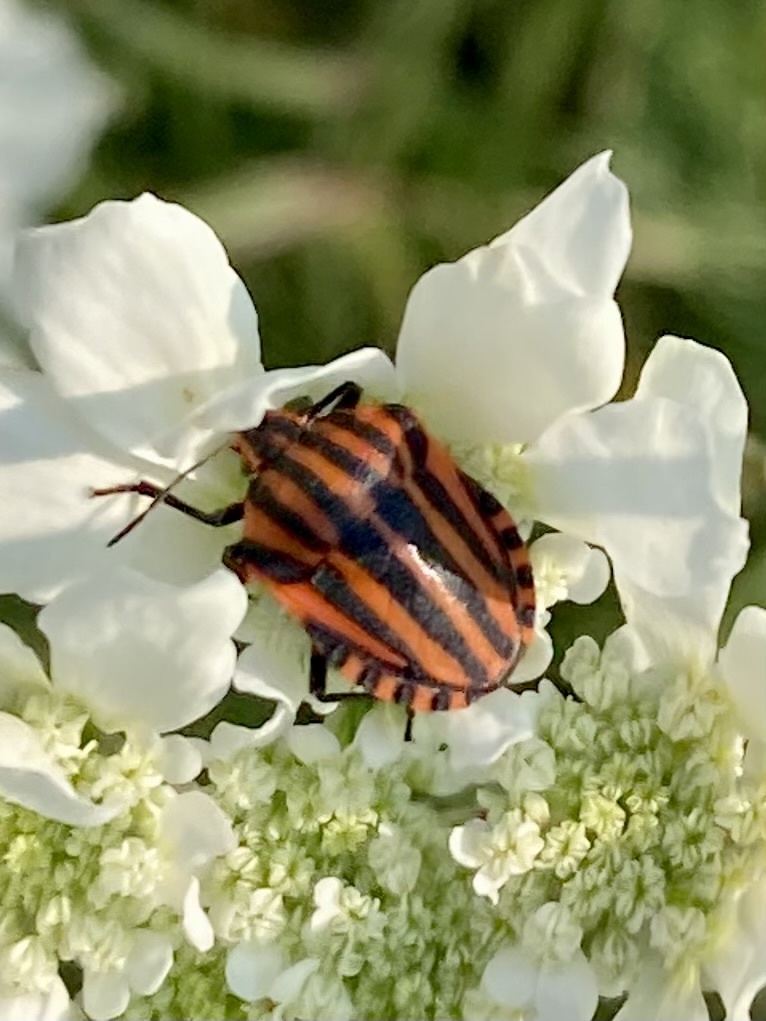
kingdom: Animalia
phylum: Arthropoda
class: Insecta
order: Hemiptera
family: Pentatomidae
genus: Graphosoma
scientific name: Graphosoma italicum
